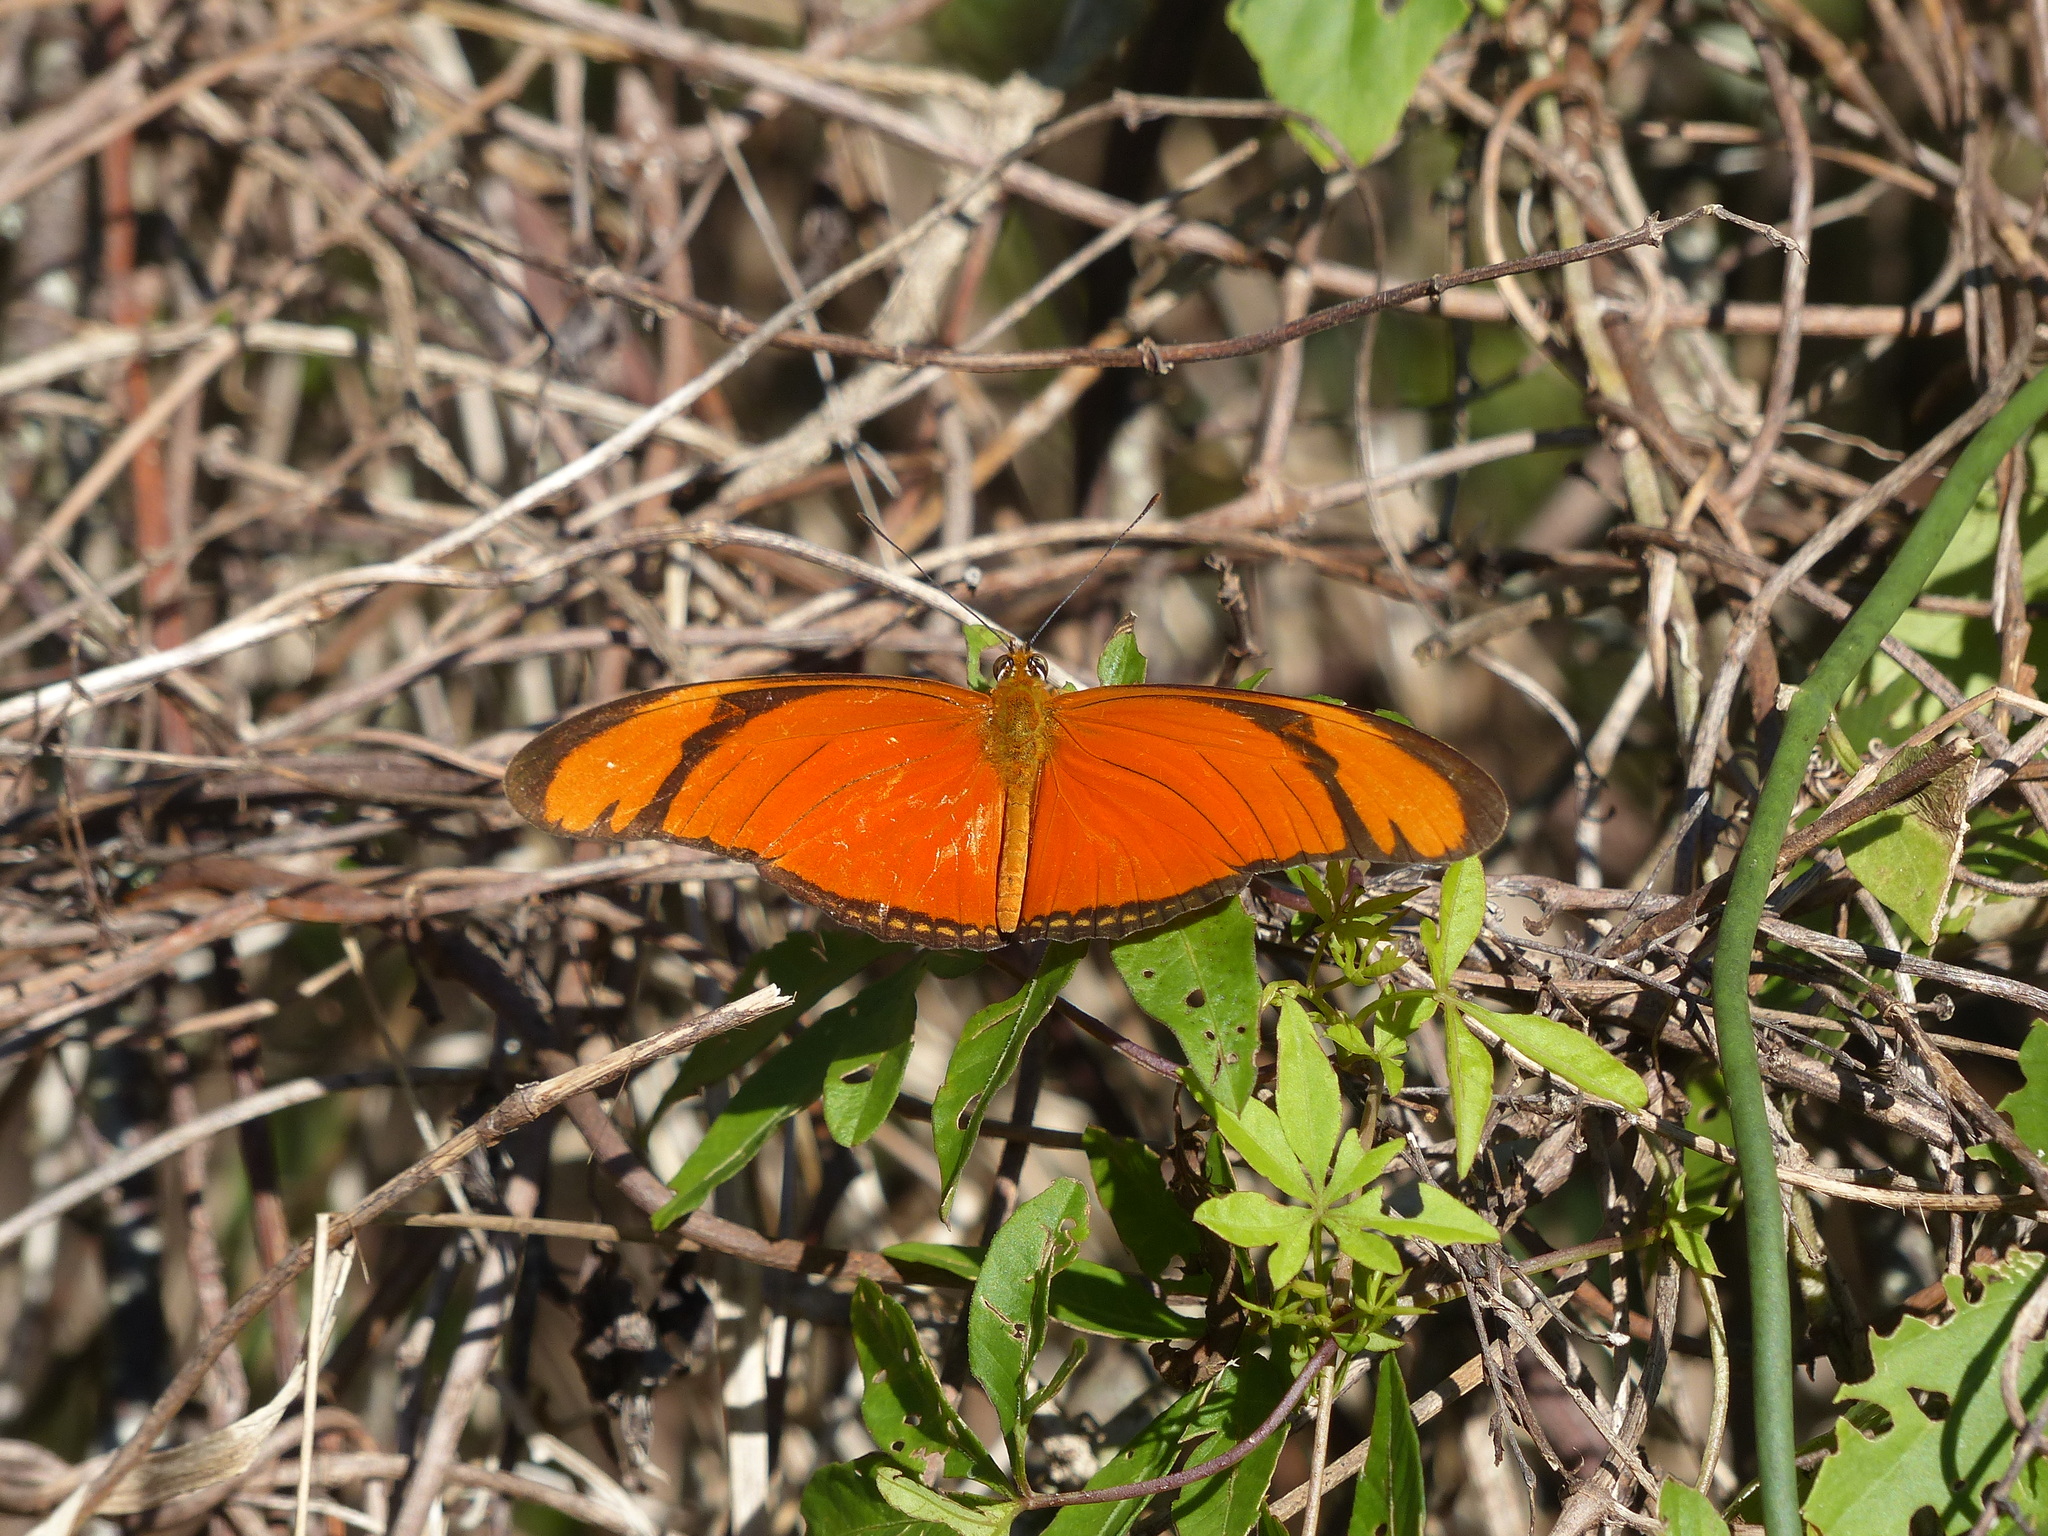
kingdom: Animalia
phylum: Arthropoda
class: Insecta
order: Lepidoptera
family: Nymphalidae
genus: Dryas
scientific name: Dryas iulia
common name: Flambeau
